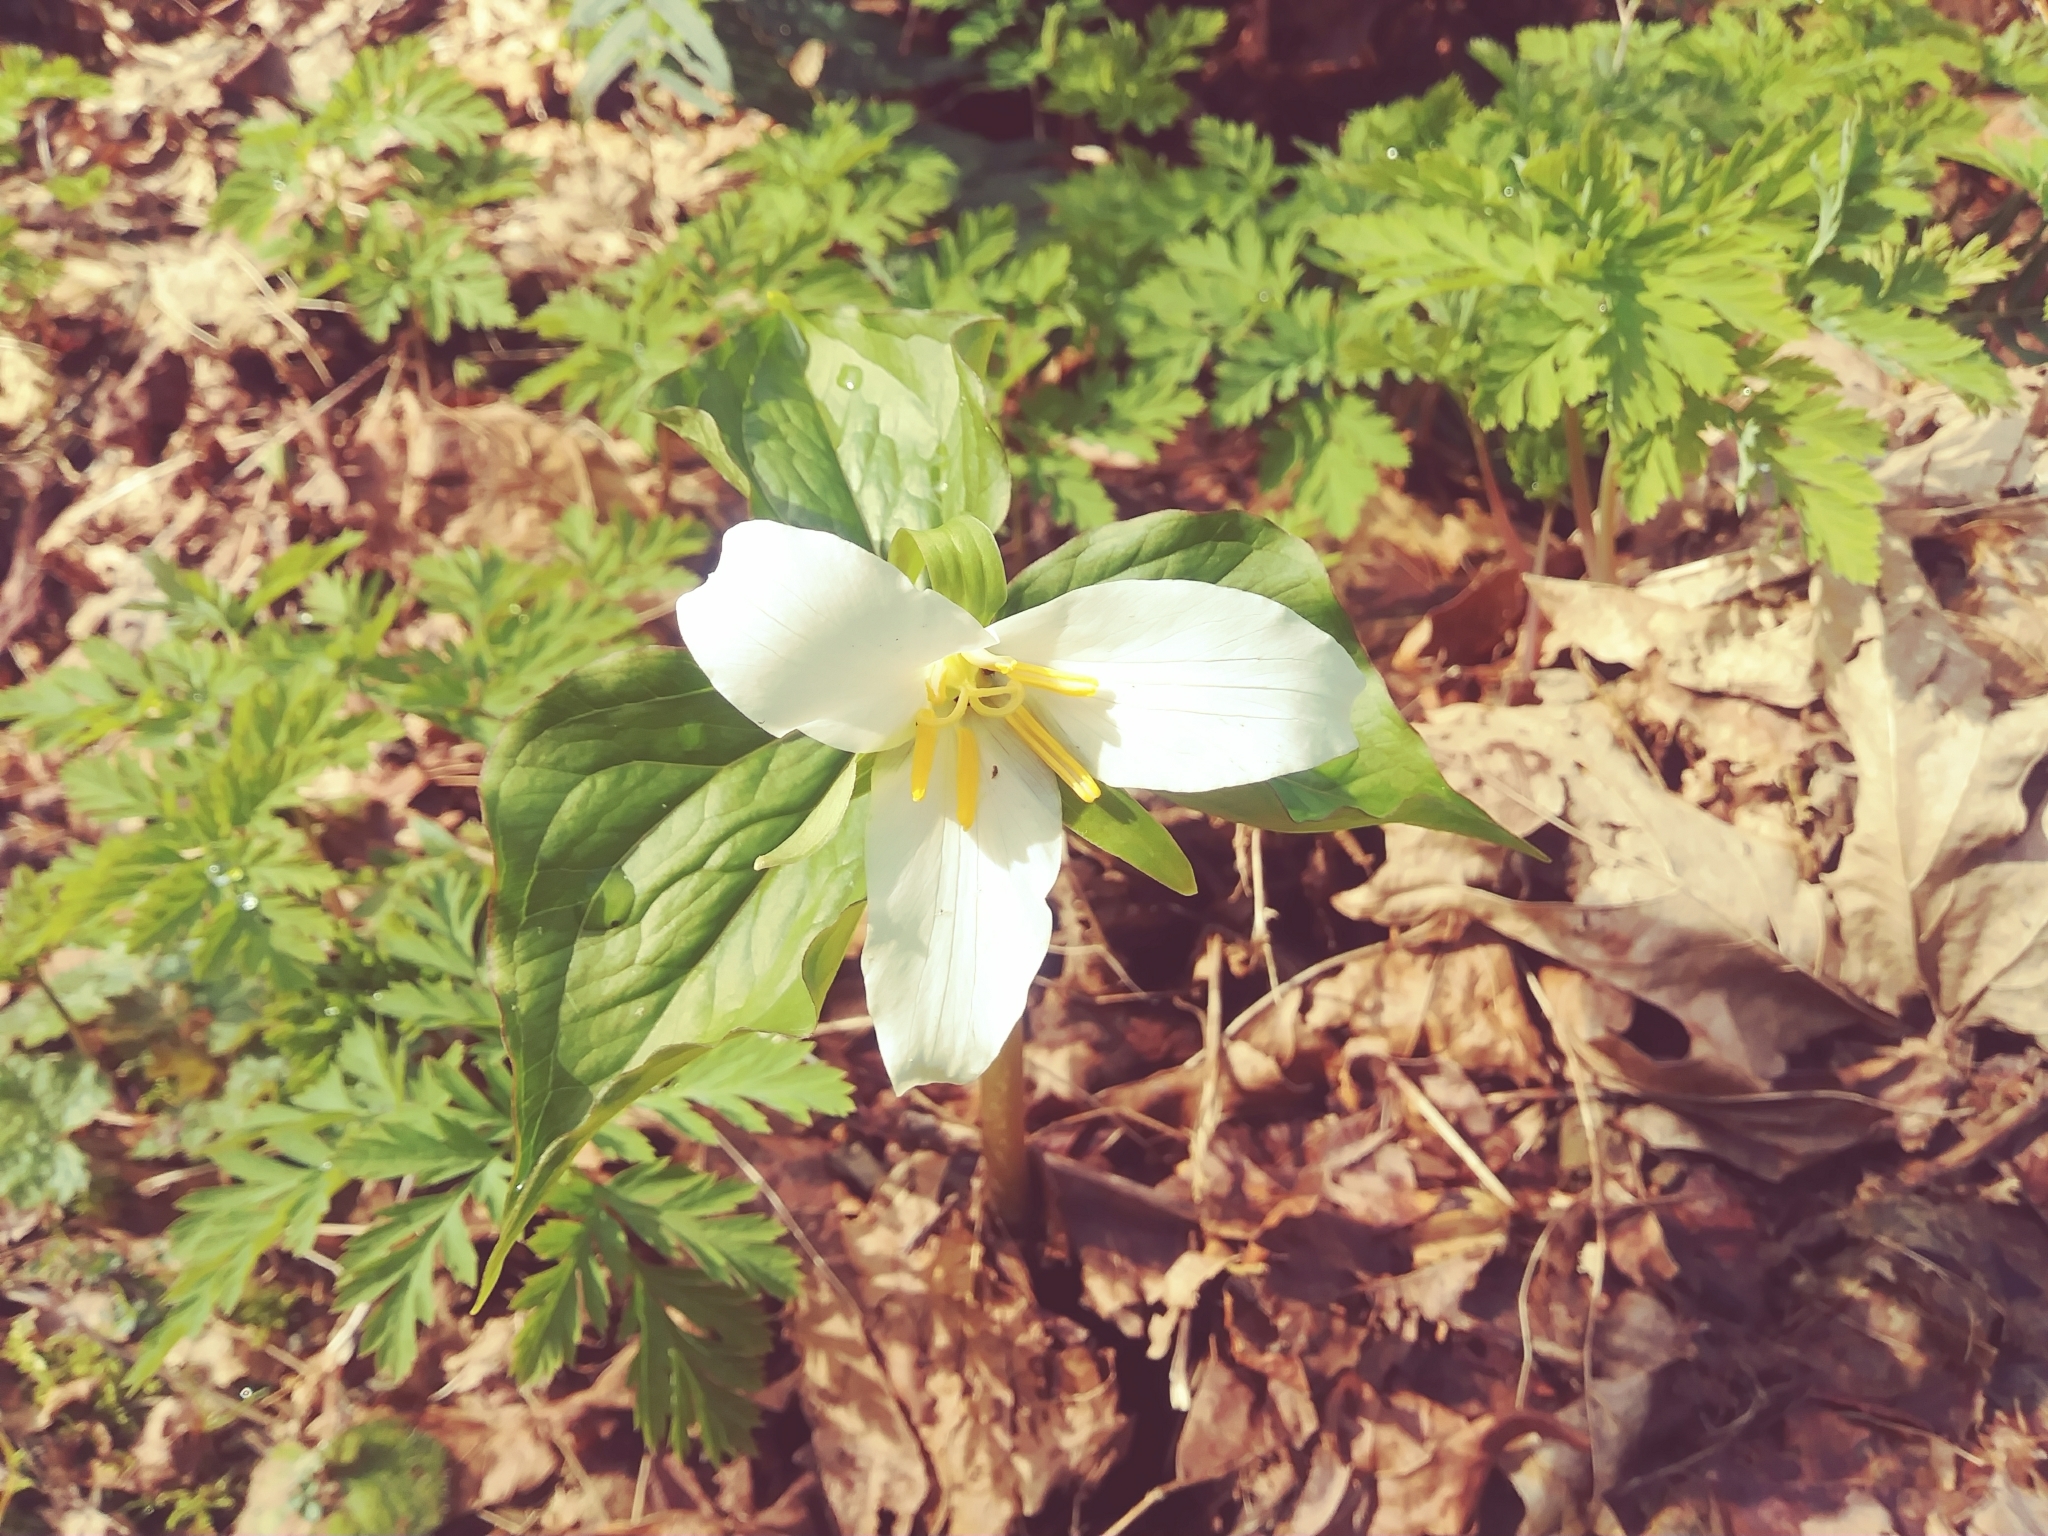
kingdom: Plantae
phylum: Tracheophyta
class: Liliopsida
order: Liliales
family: Melanthiaceae
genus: Trillium
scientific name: Trillium ovatum
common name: Pacific trillium
